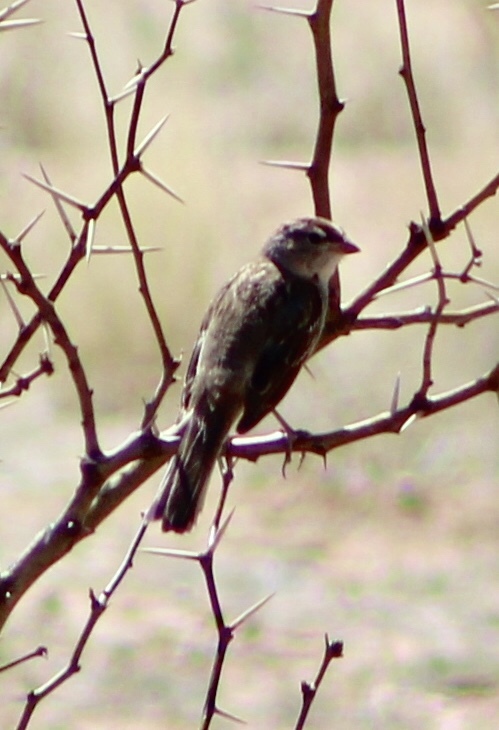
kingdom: Animalia
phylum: Chordata
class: Aves
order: Passeriformes
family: Passerellidae
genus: Zonotrichia
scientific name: Zonotrichia leucophrys
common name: White-crowned sparrow
